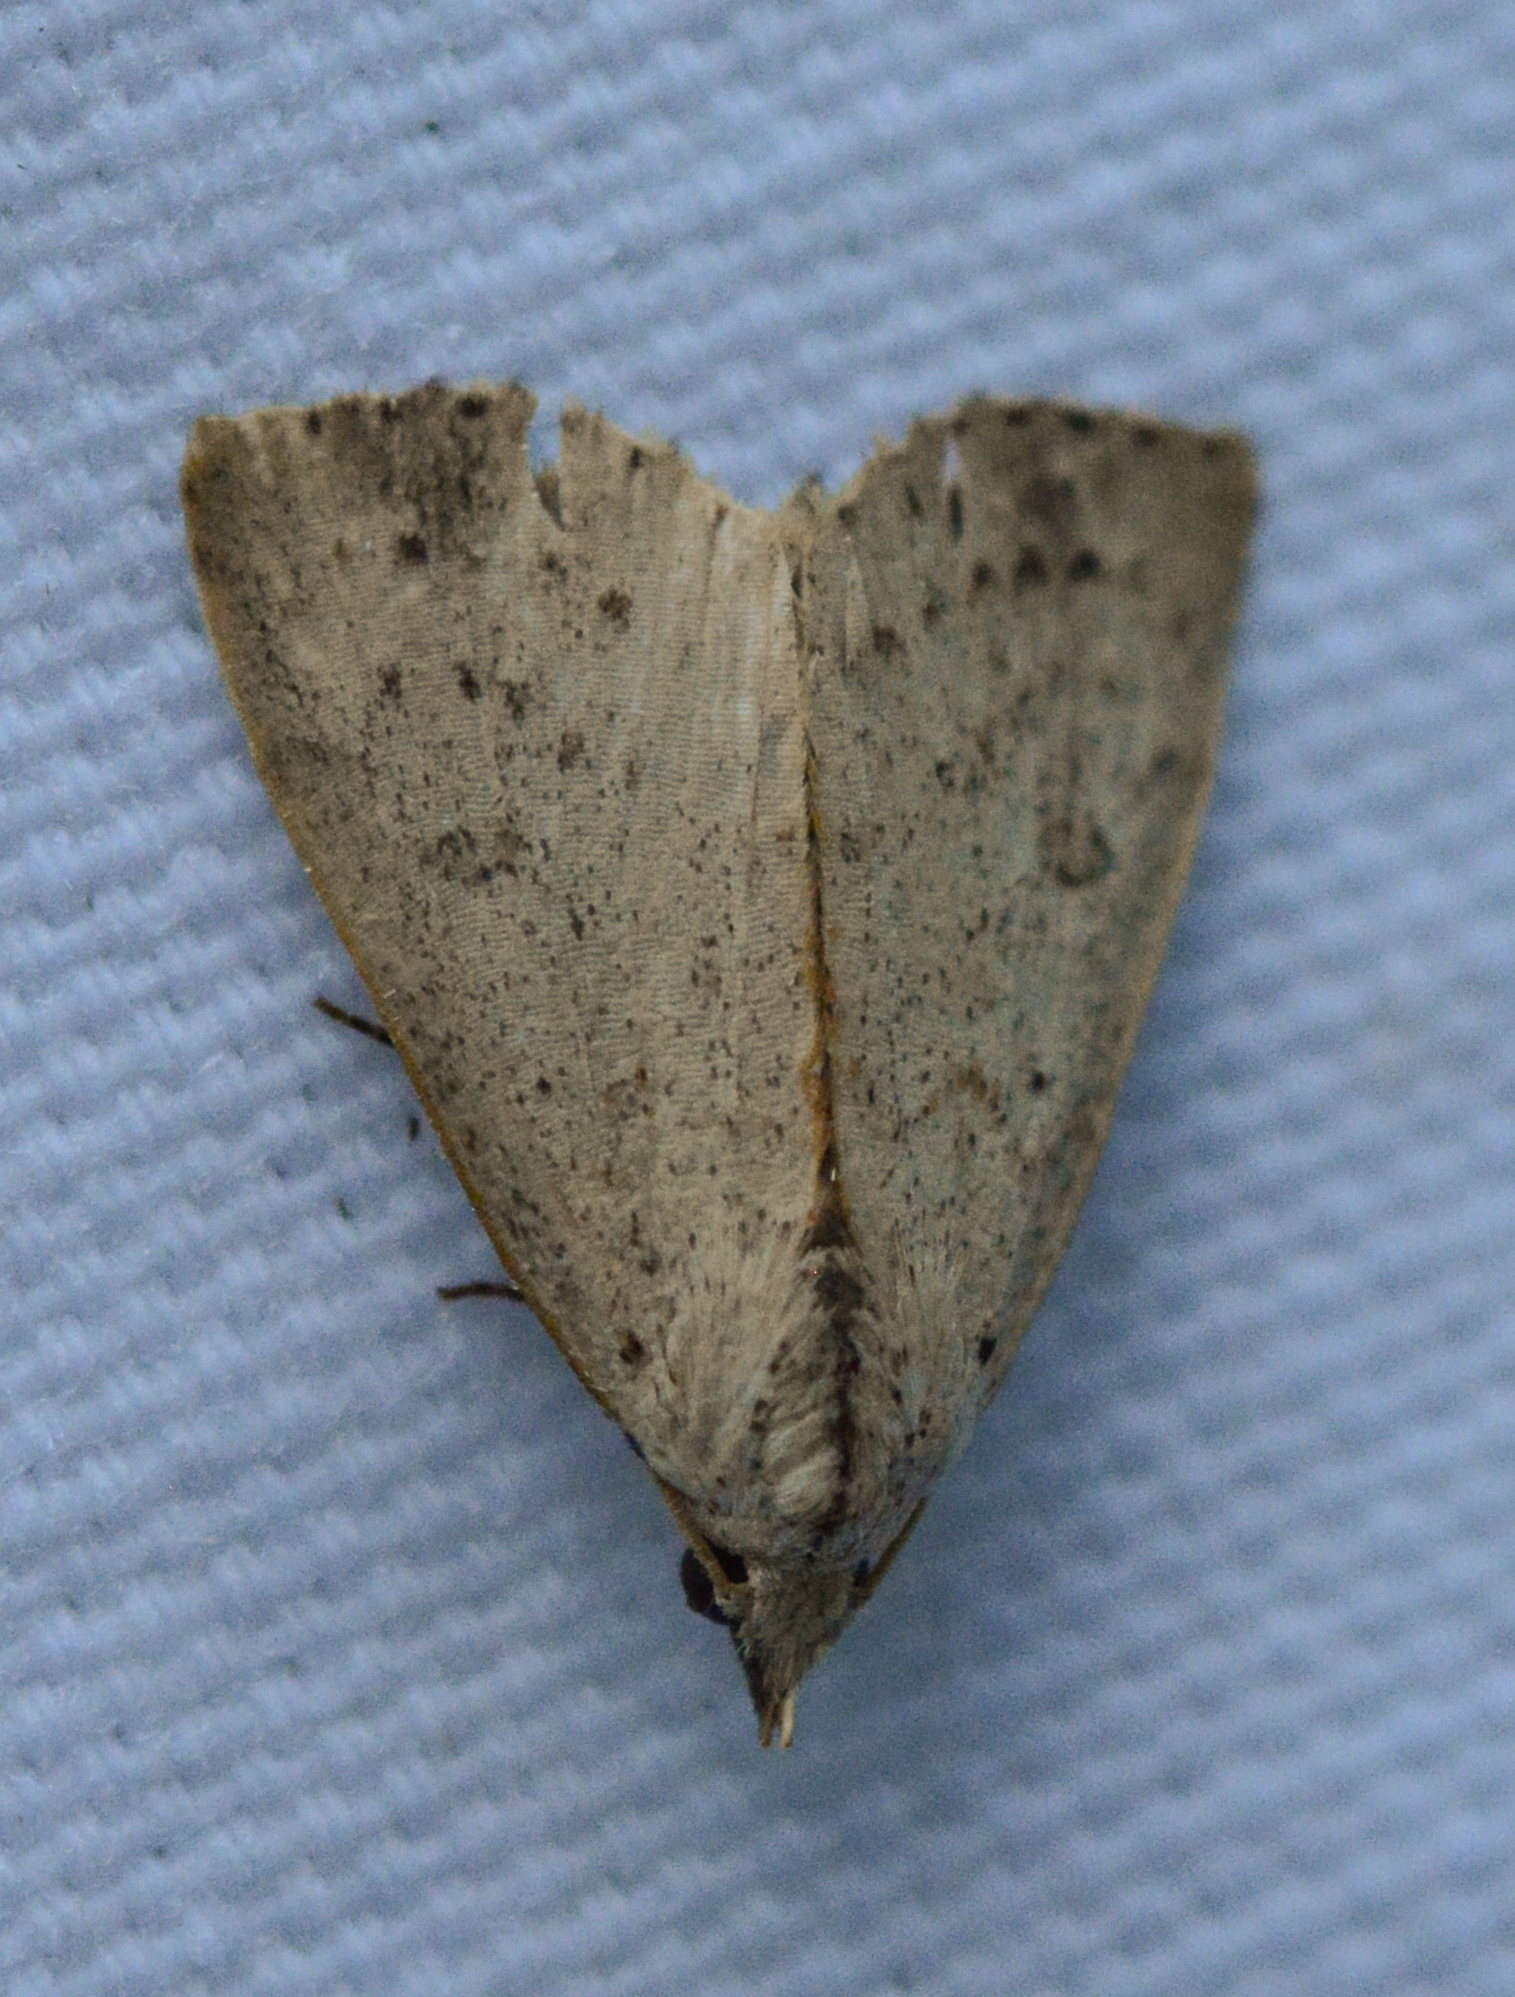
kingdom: Animalia
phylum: Arthropoda
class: Insecta
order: Lepidoptera
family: Erebidae
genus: Scolecocampa
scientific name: Scolecocampa liburna
